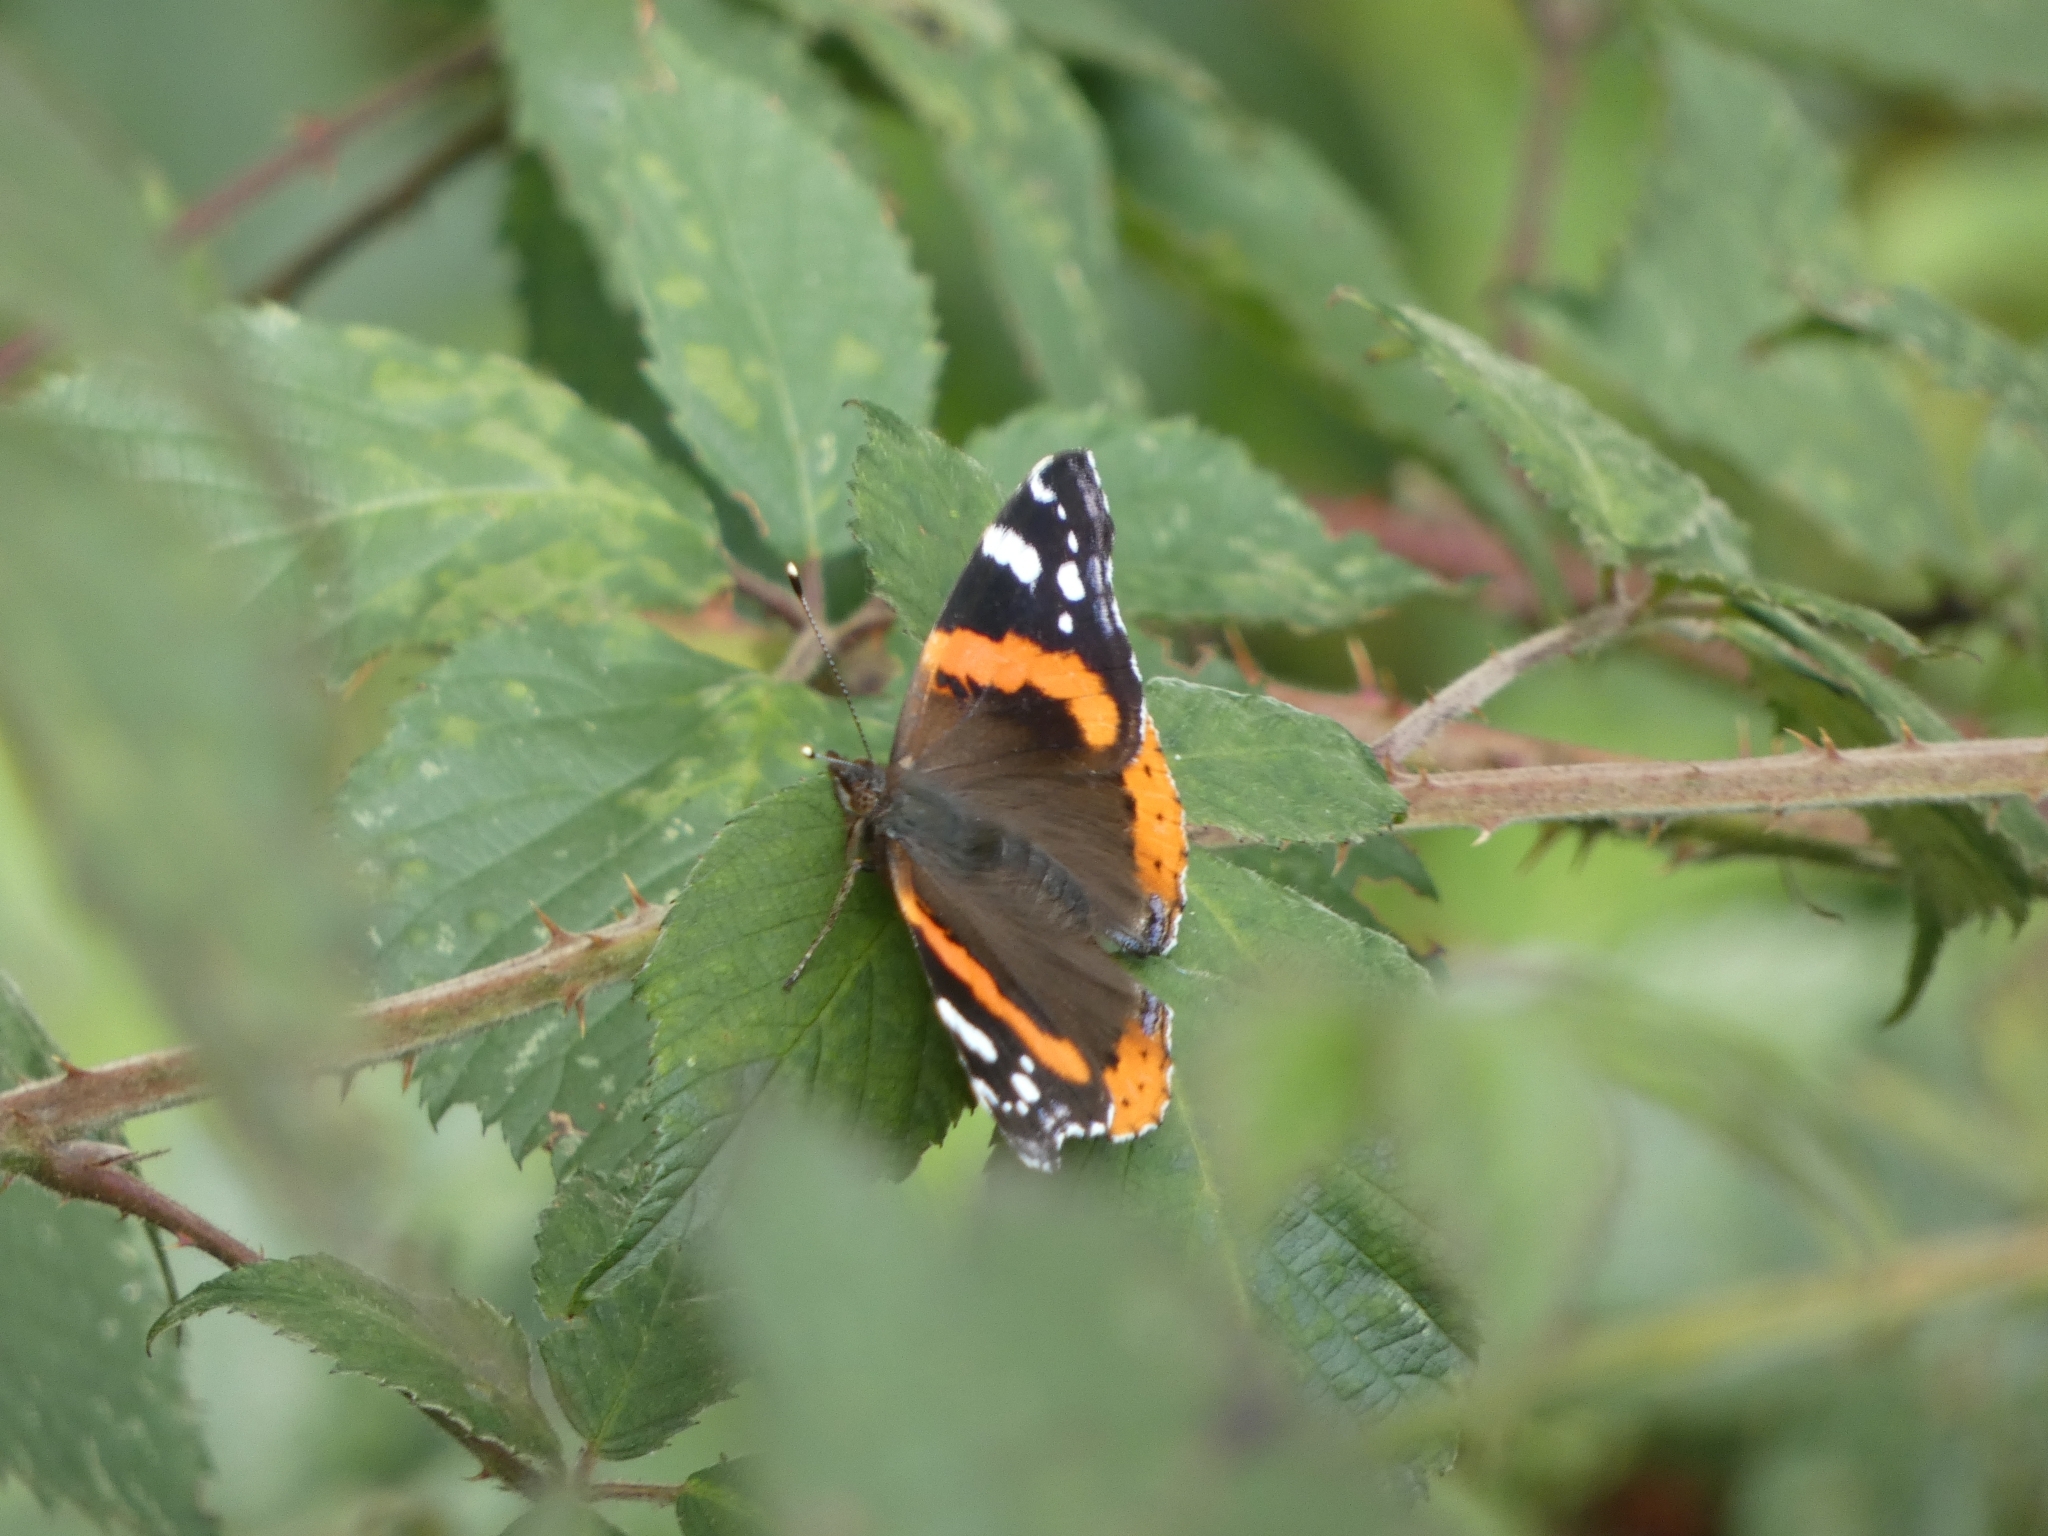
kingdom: Animalia
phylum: Arthropoda
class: Insecta
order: Lepidoptera
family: Nymphalidae
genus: Vanessa
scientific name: Vanessa atalanta
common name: Red admiral
